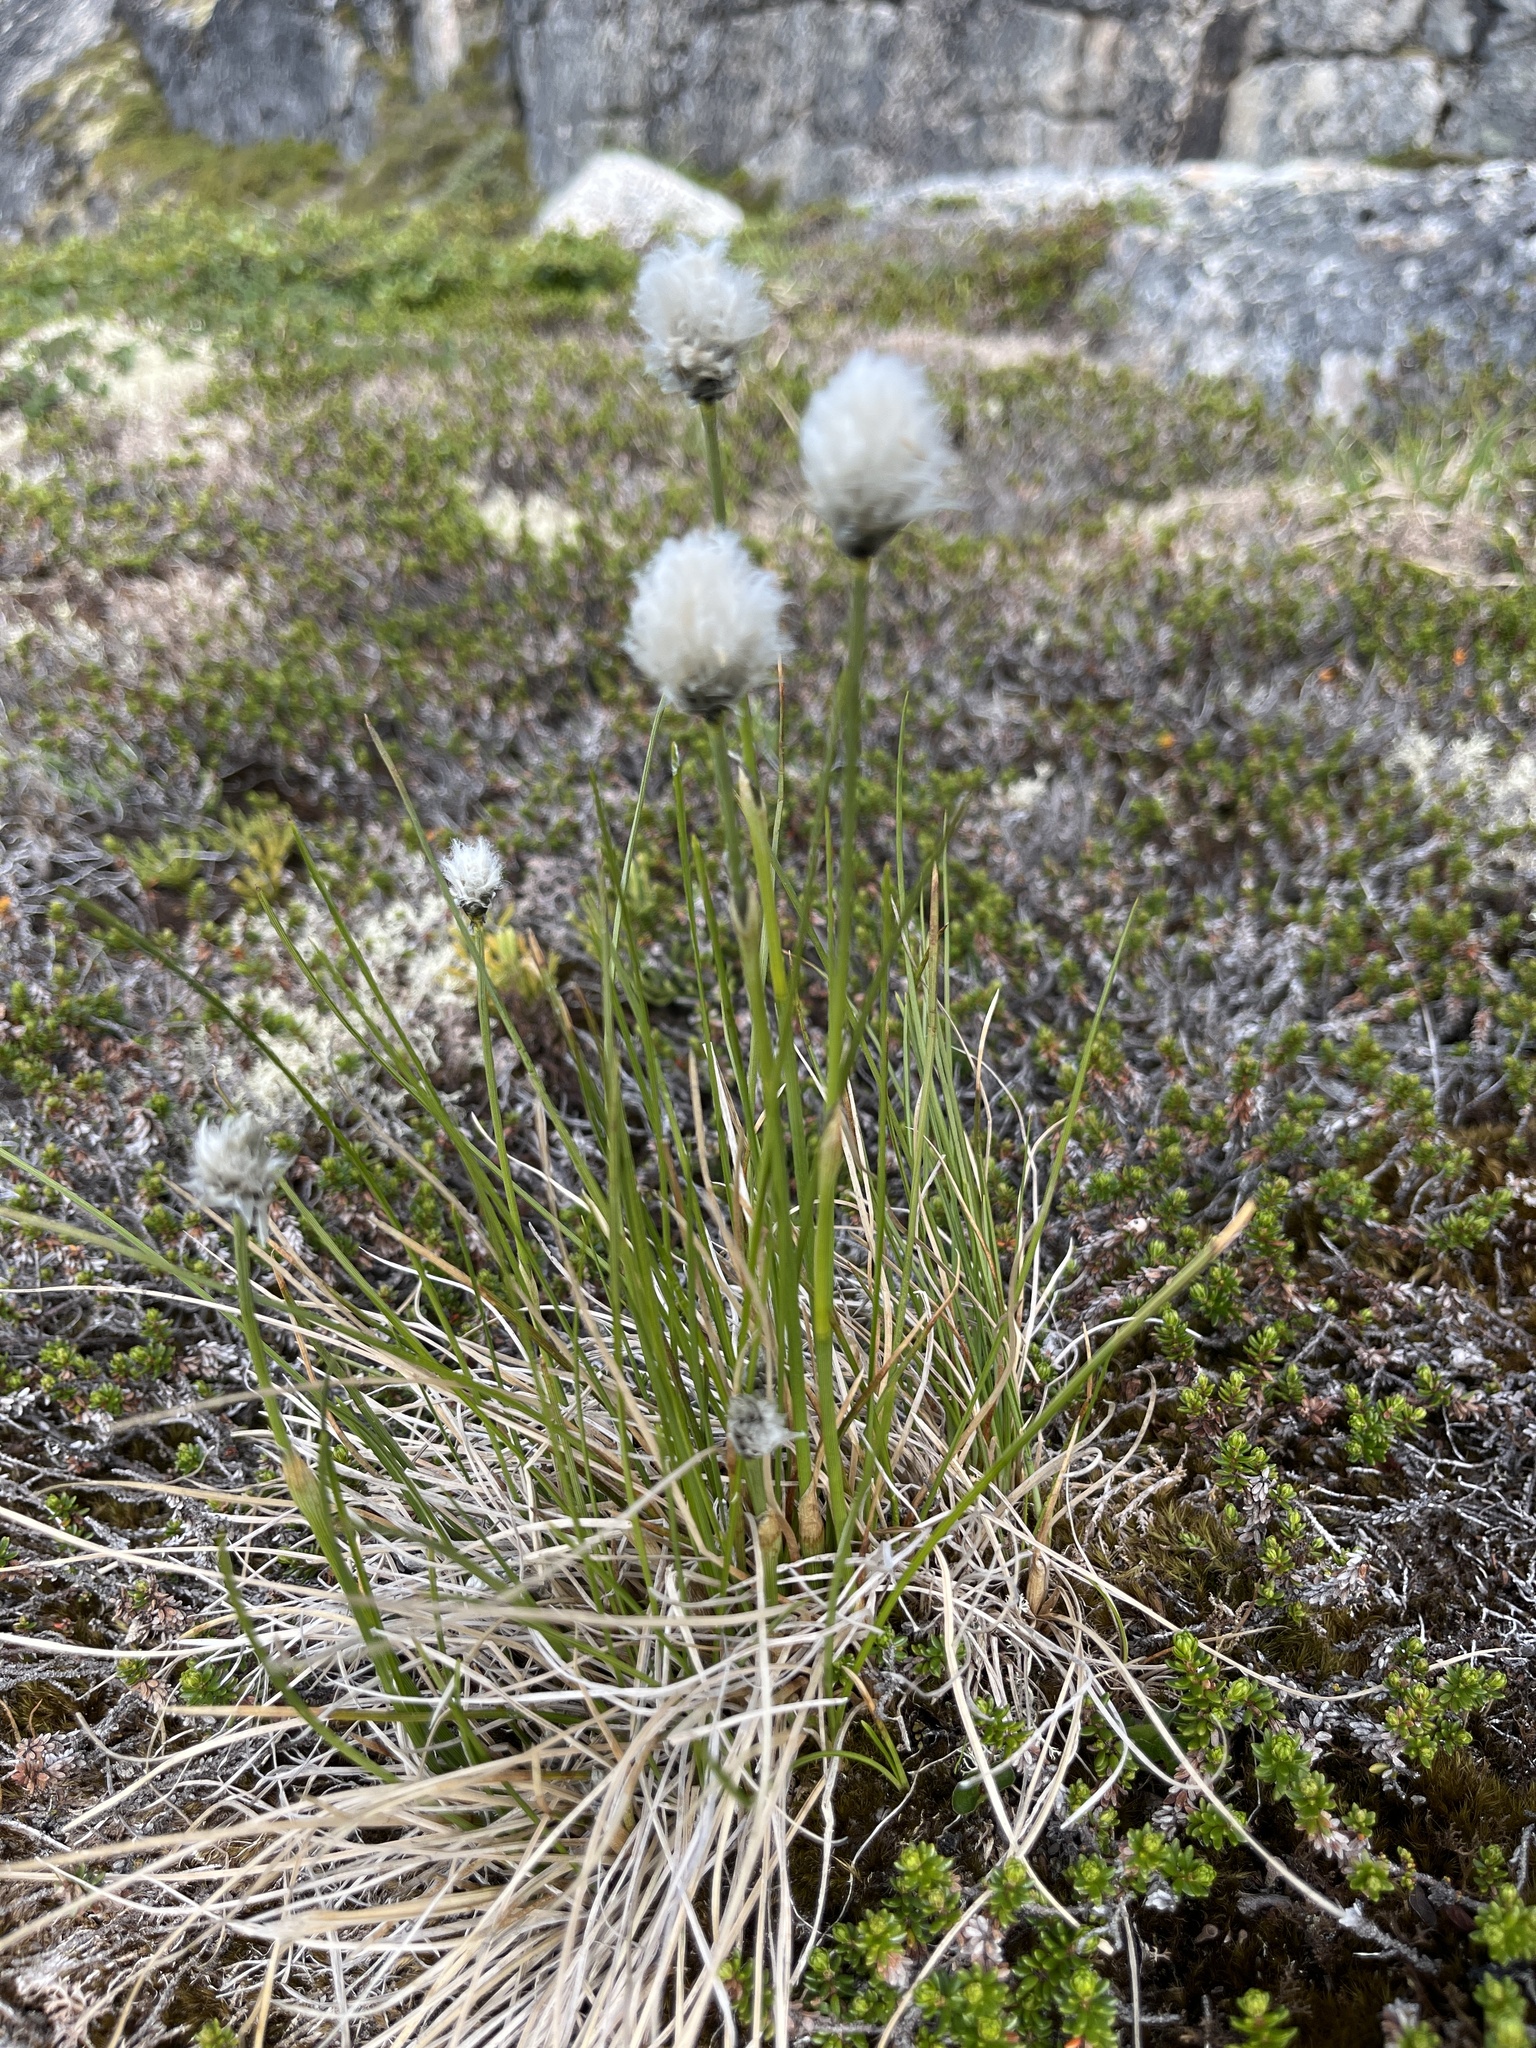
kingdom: Plantae
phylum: Tracheophyta
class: Liliopsida
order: Poales
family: Cyperaceae
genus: Eriophorum
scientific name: Eriophorum vaginatum
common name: Hare's-tail cottongrass
